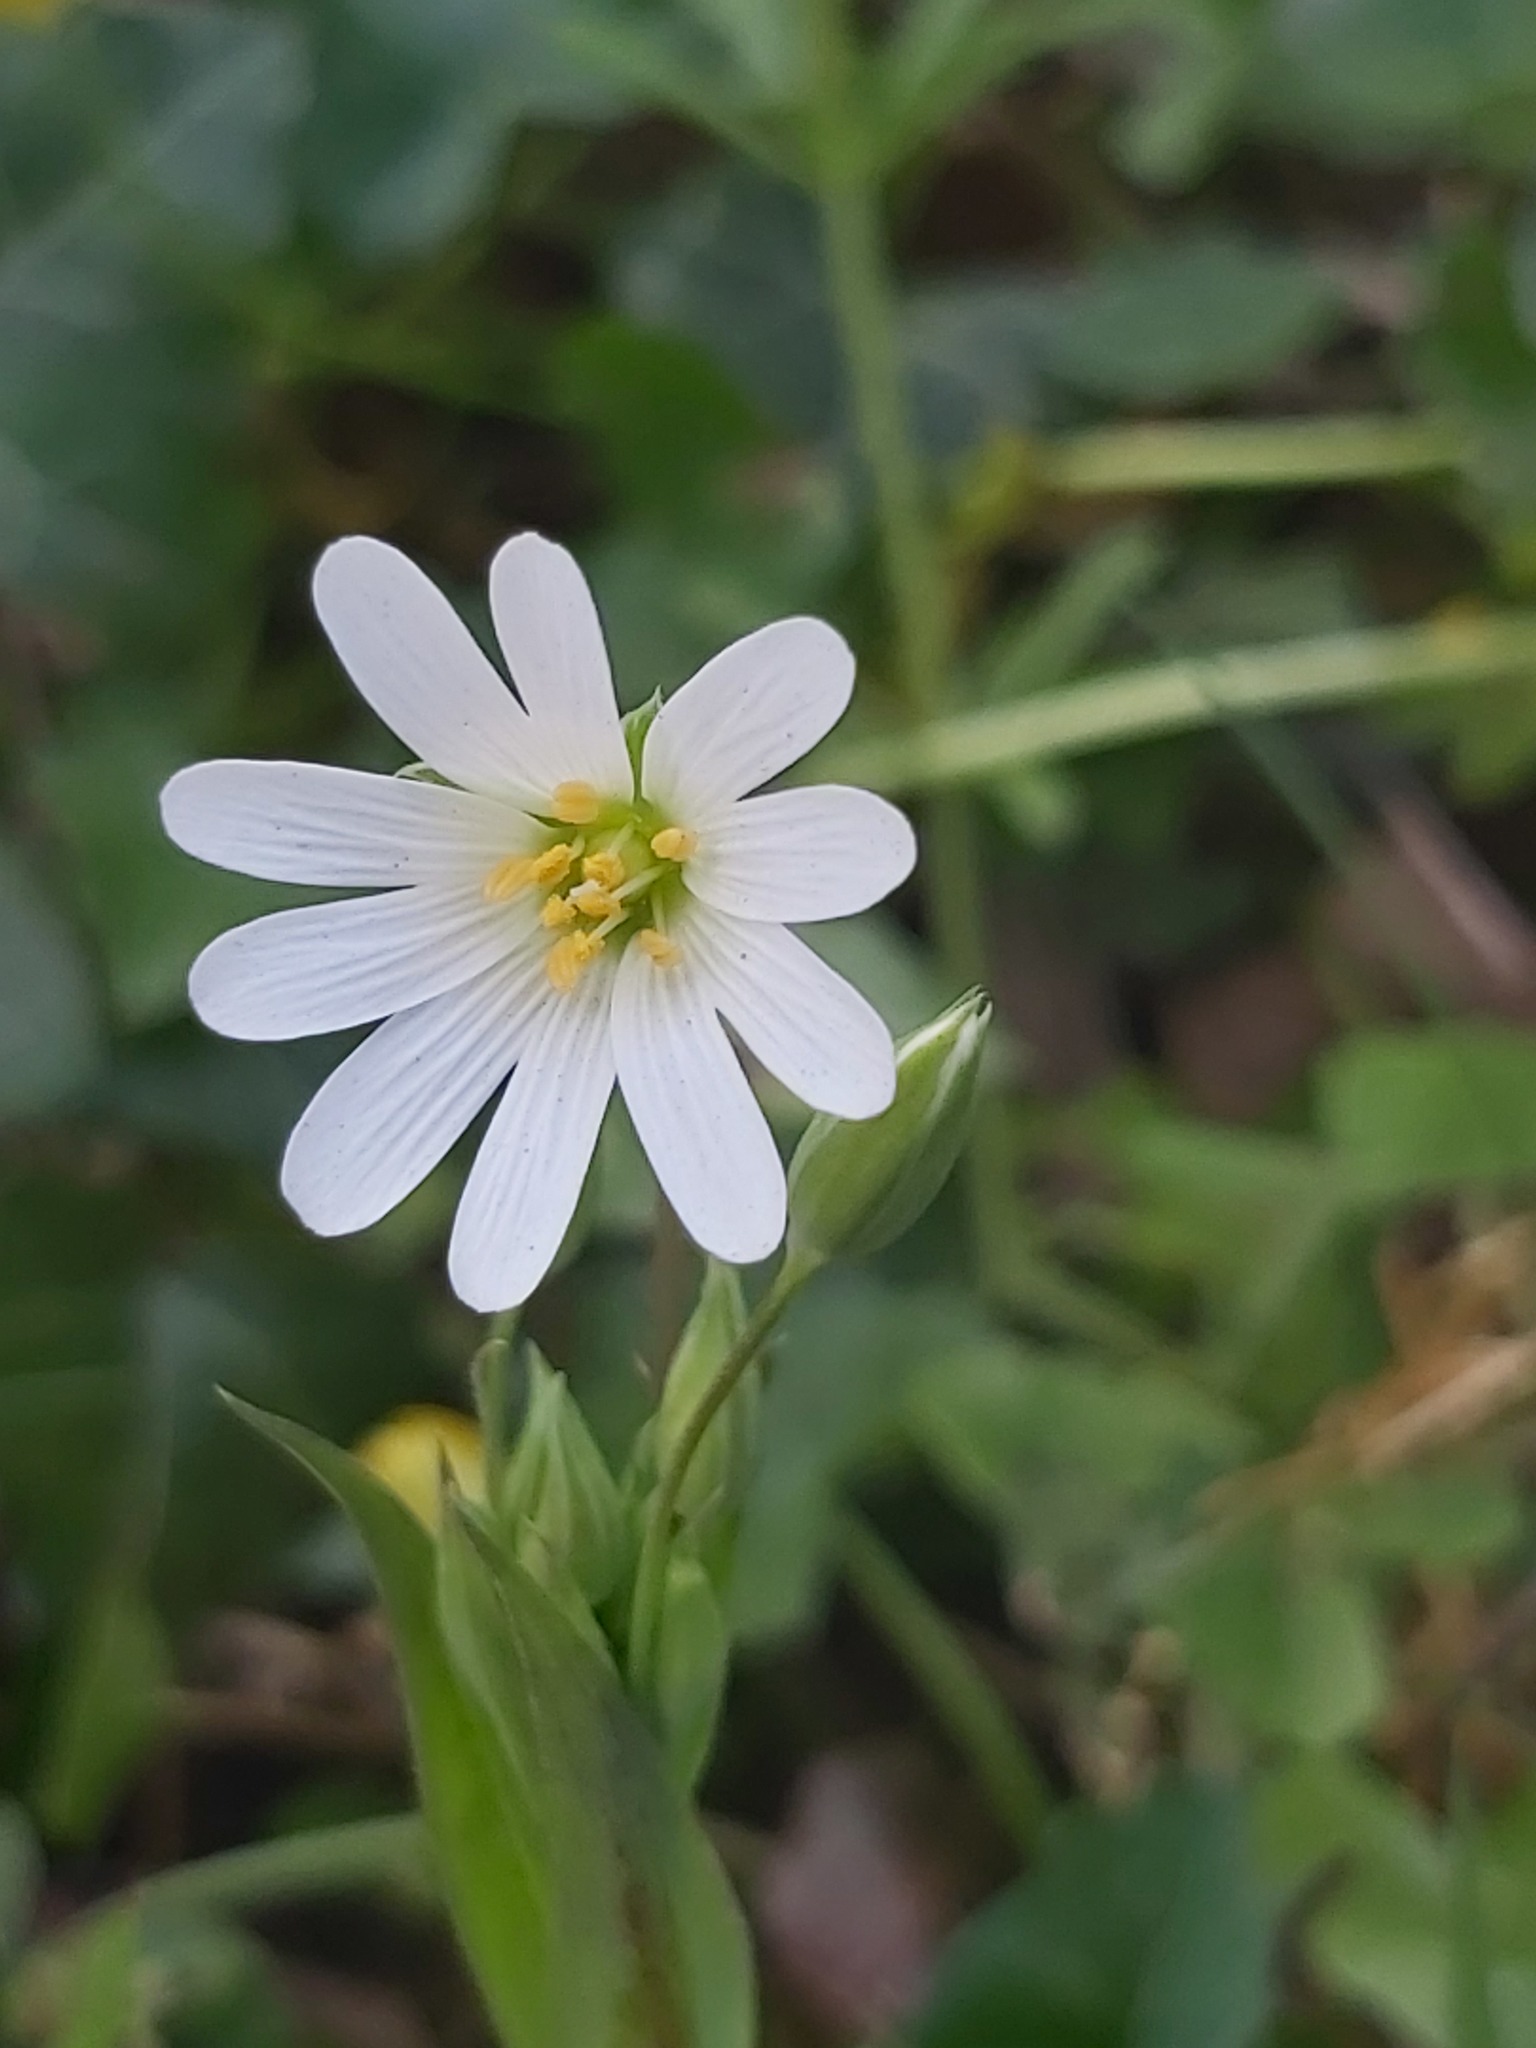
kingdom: Plantae
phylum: Tracheophyta
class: Magnoliopsida
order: Caryophyllales
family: Caryophyllaceae
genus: Rabelera
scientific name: Rabelera holostea
